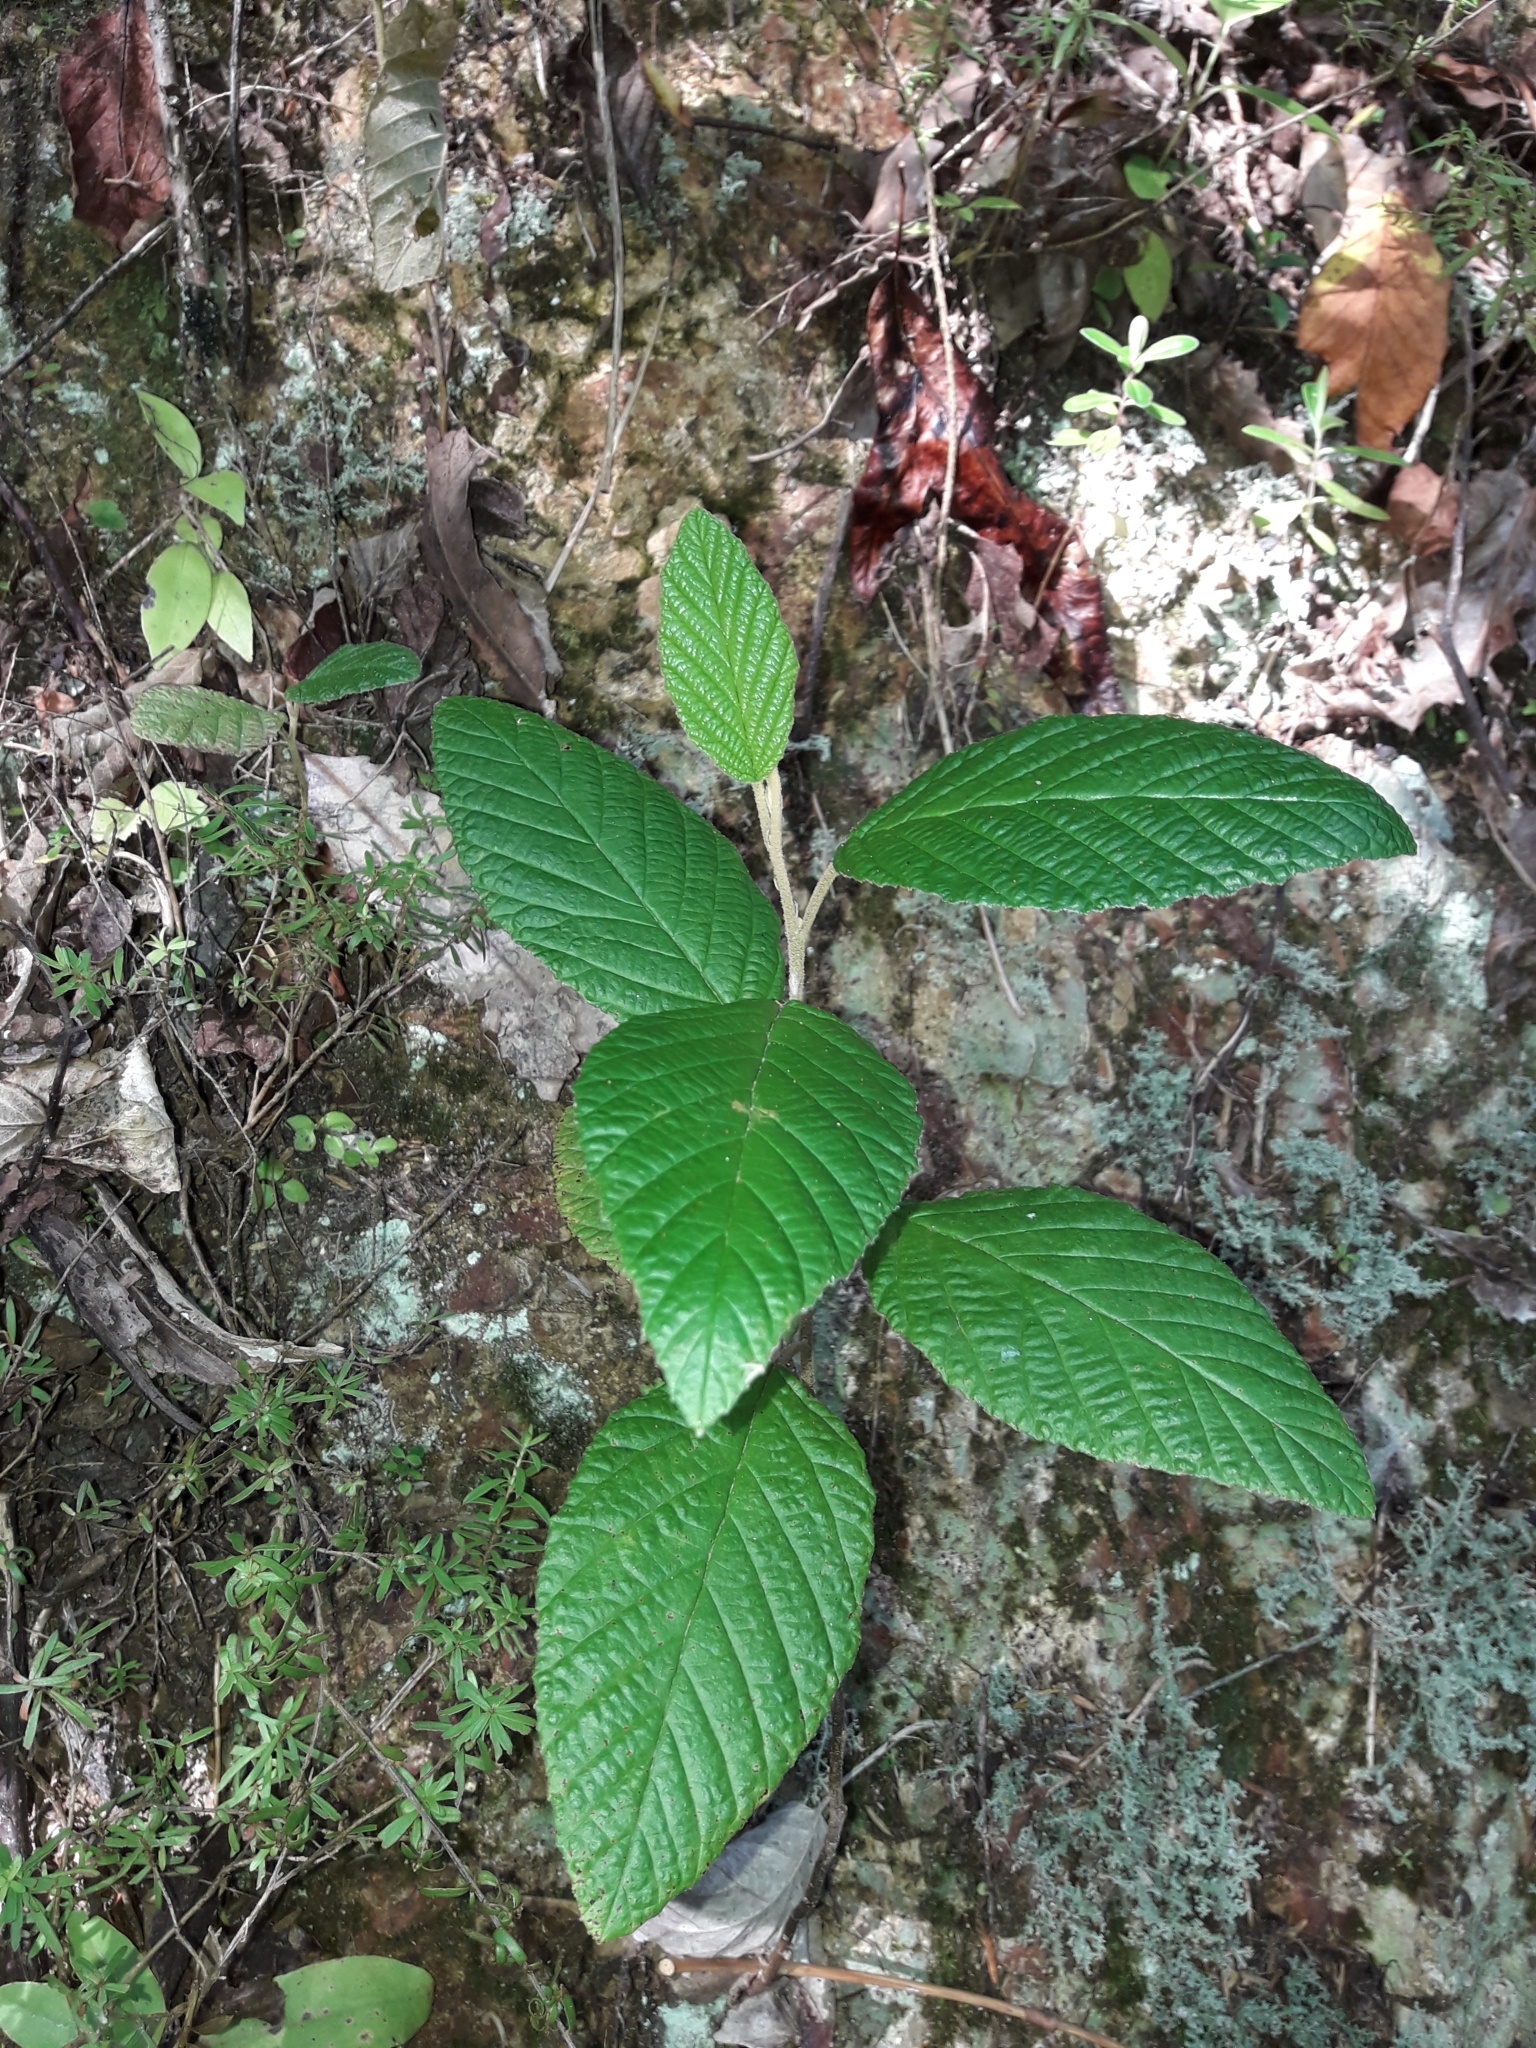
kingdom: Plantae
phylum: Tracheophyta
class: Magnoliopsida
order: Rosales
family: Rhamnaceae
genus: Pomaderris
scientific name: Pomaderris aspera
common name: Hazel pomaderris
